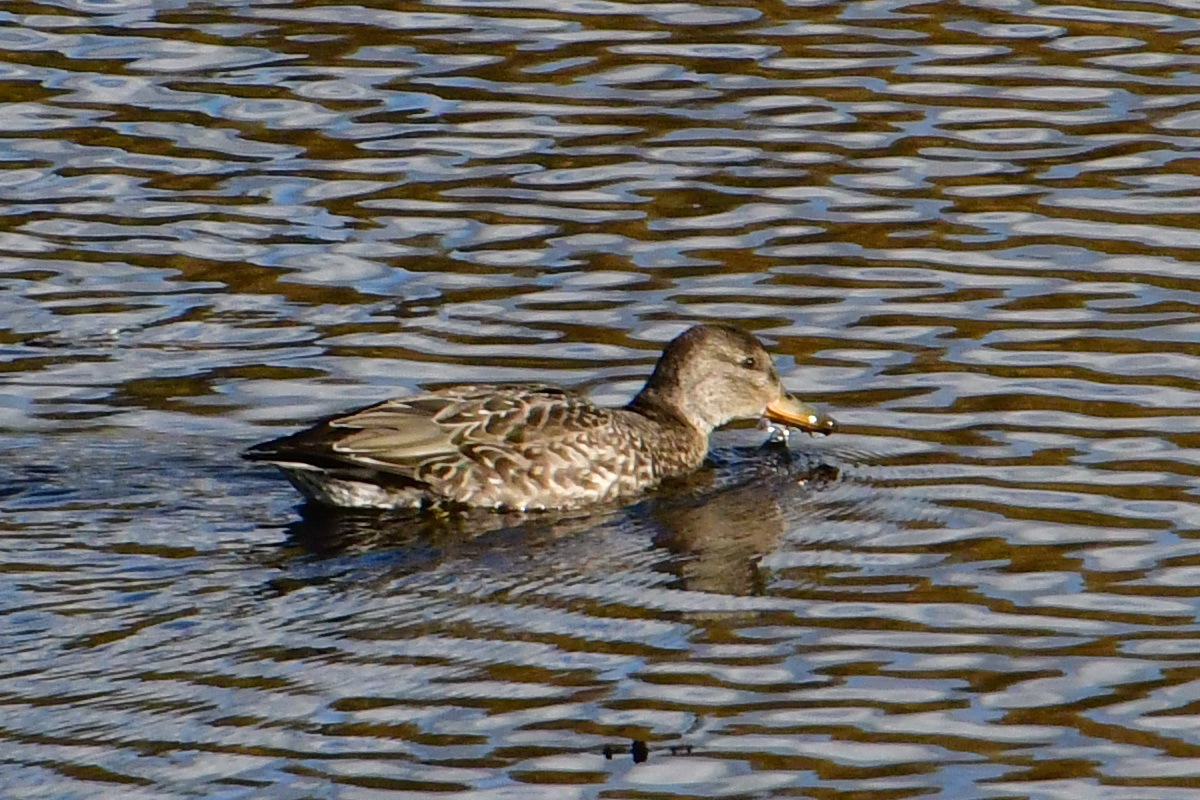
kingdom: Animalia
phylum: Chordata
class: Aves
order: Anseriformes
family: Anatidae
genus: Anas
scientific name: Anas crecca
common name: Eurasian teal
